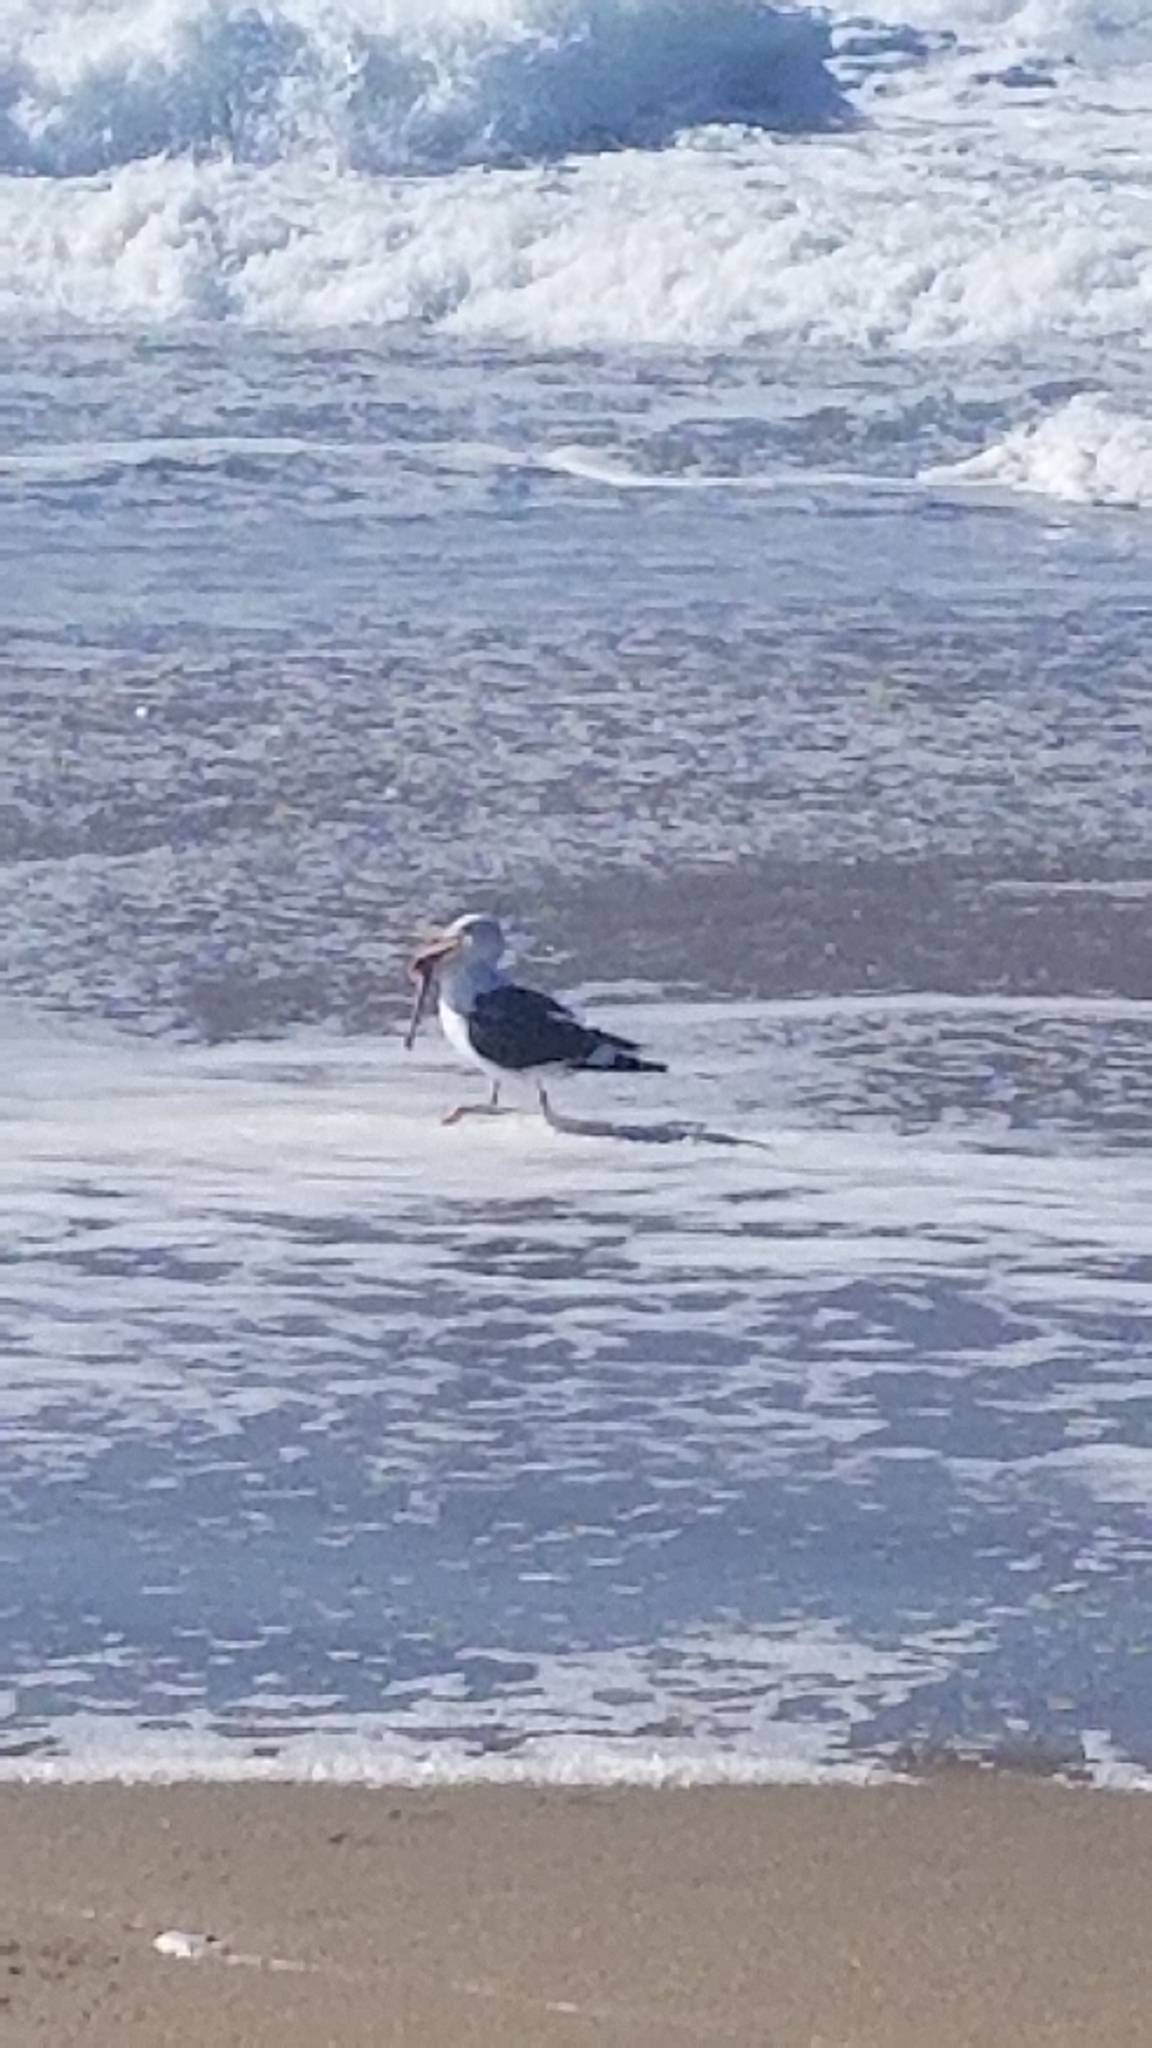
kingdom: Animalia
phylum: Chordata
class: Aves
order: Charadriiformes
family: Laridae
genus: Larus
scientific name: Larus occidentalis
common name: Western gull
